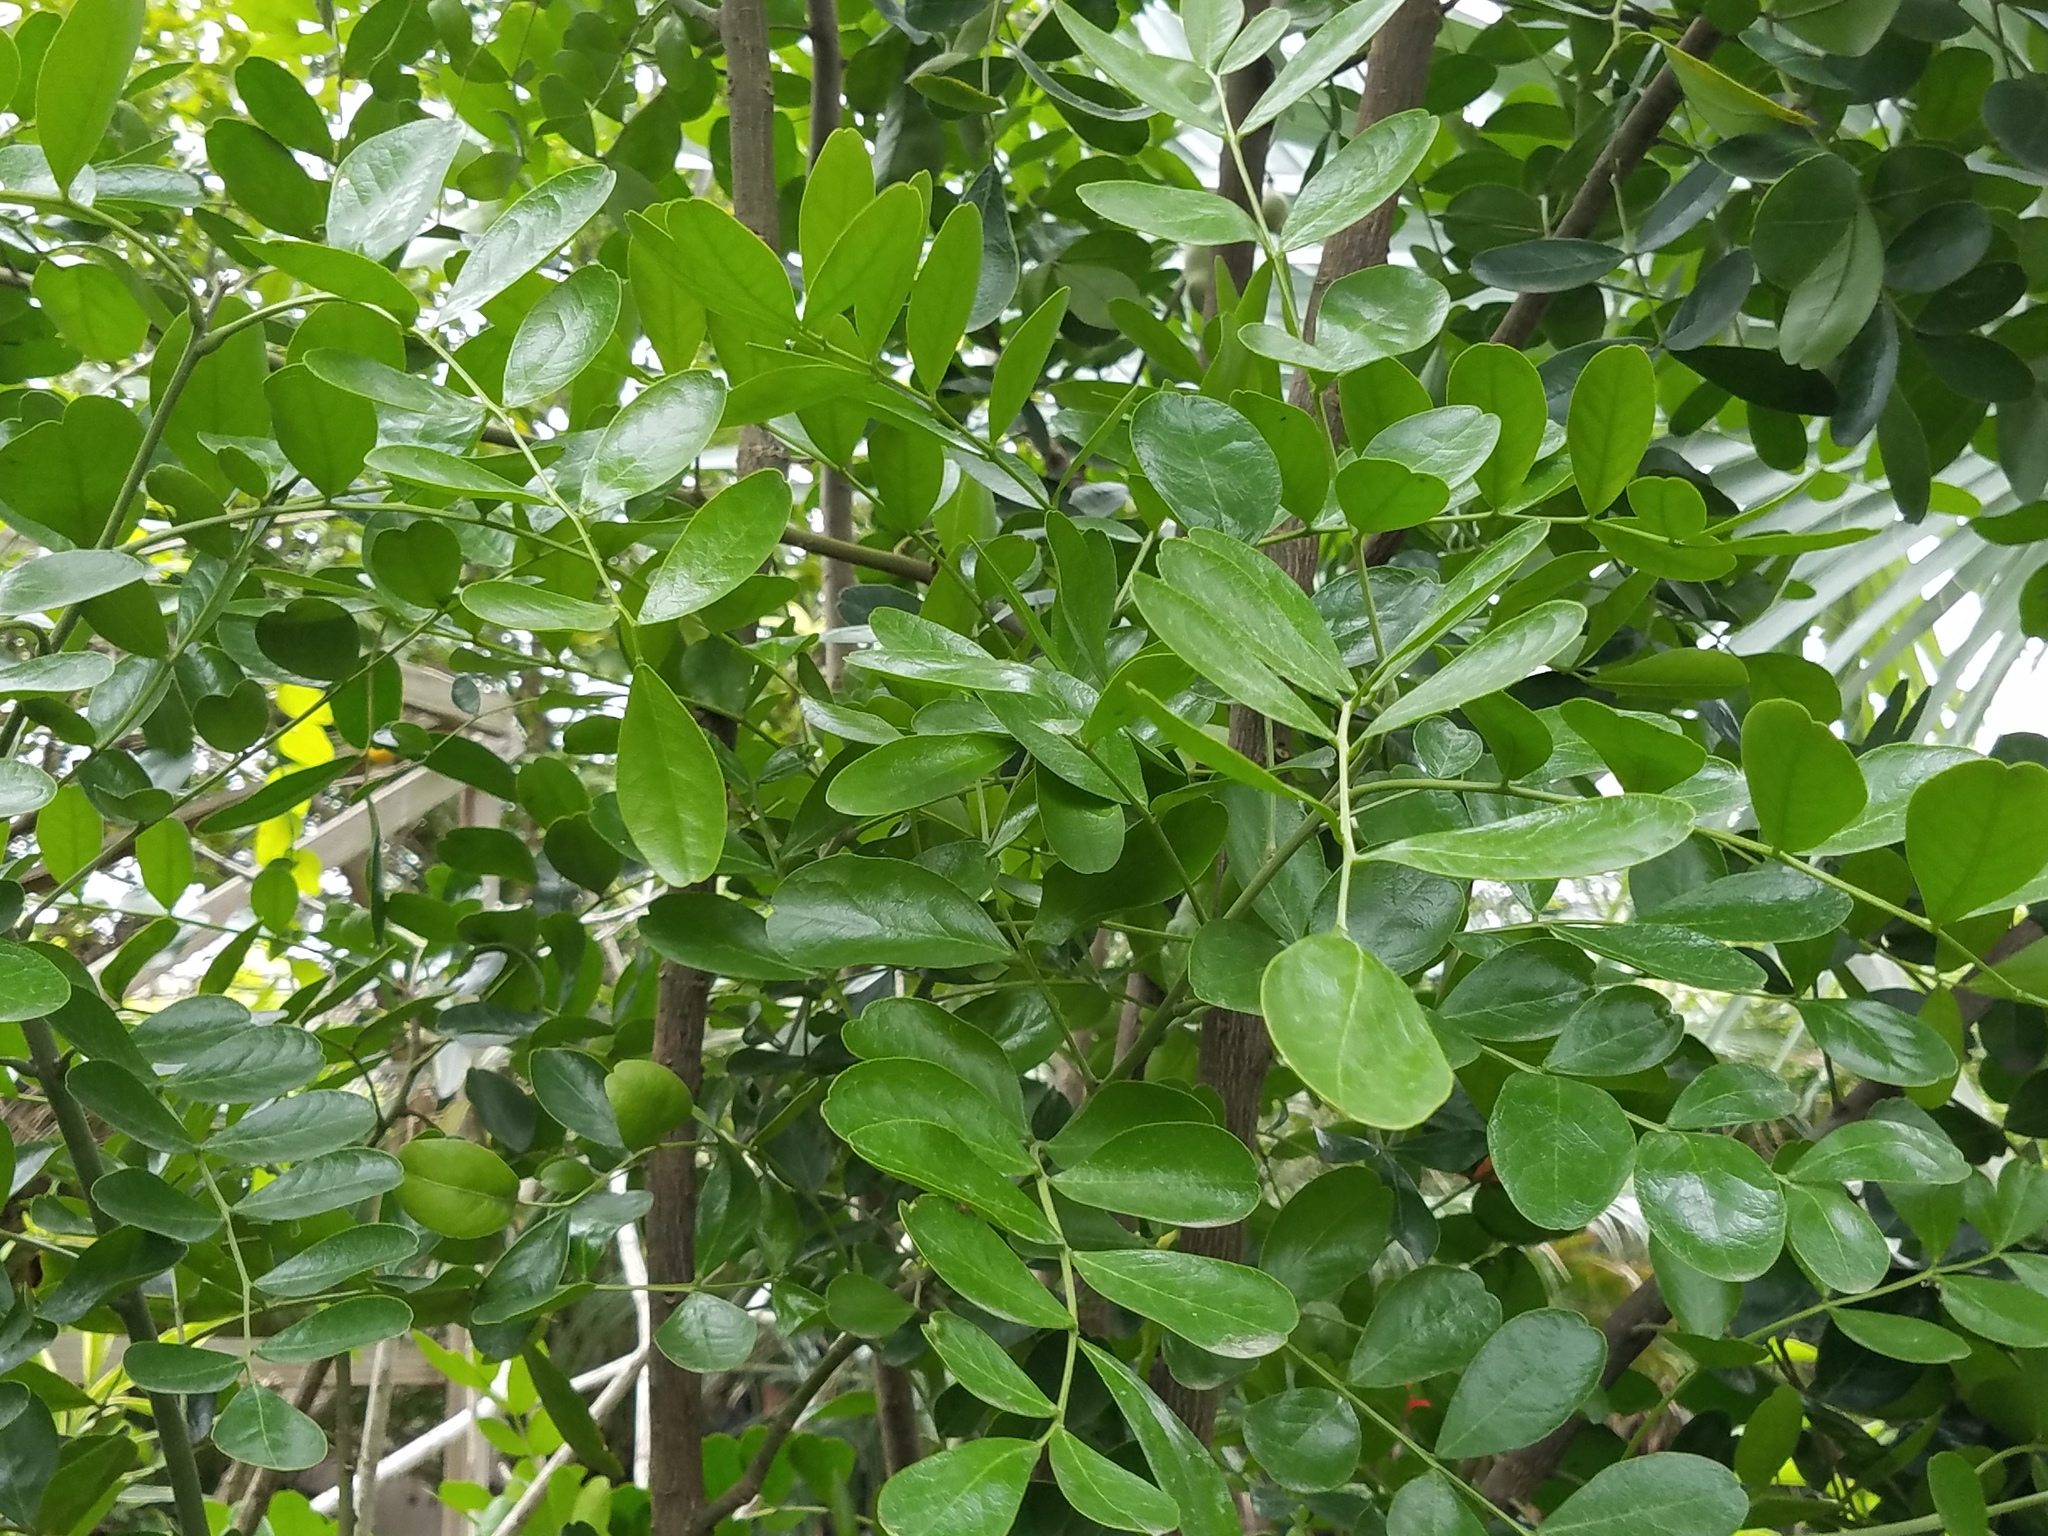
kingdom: Plantae
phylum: Tracheophyta
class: Magnoliopsida
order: Fabales
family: Fabaceae
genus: Dermatophyllum
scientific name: Dermatophyllum secundiflorum
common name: Texas-mountain-laurel
